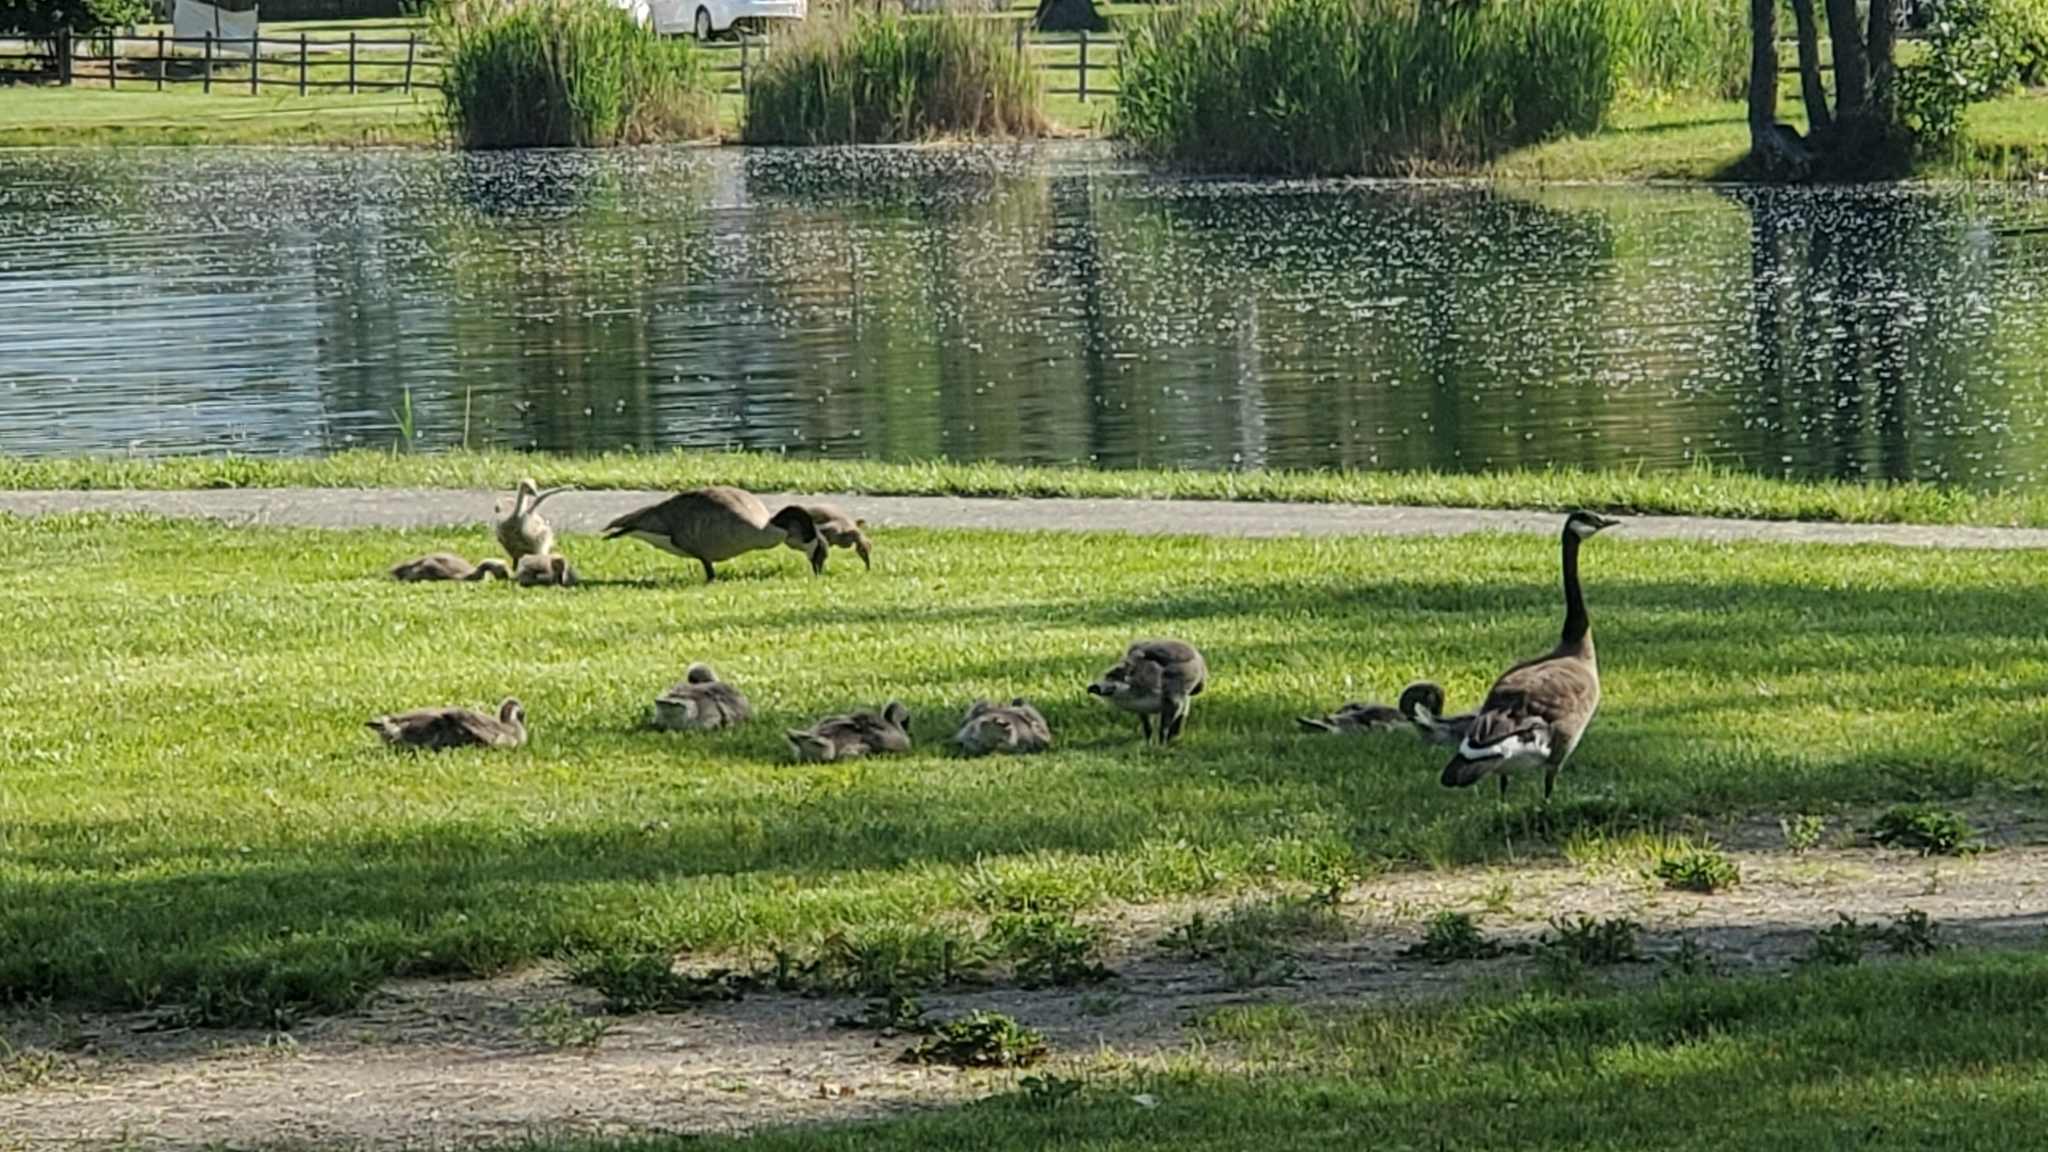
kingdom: Animalia
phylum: Chordata
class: Aves
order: Anseriformes
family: Anatidae
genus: Branta
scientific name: Branta canadensis
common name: Canada goose
